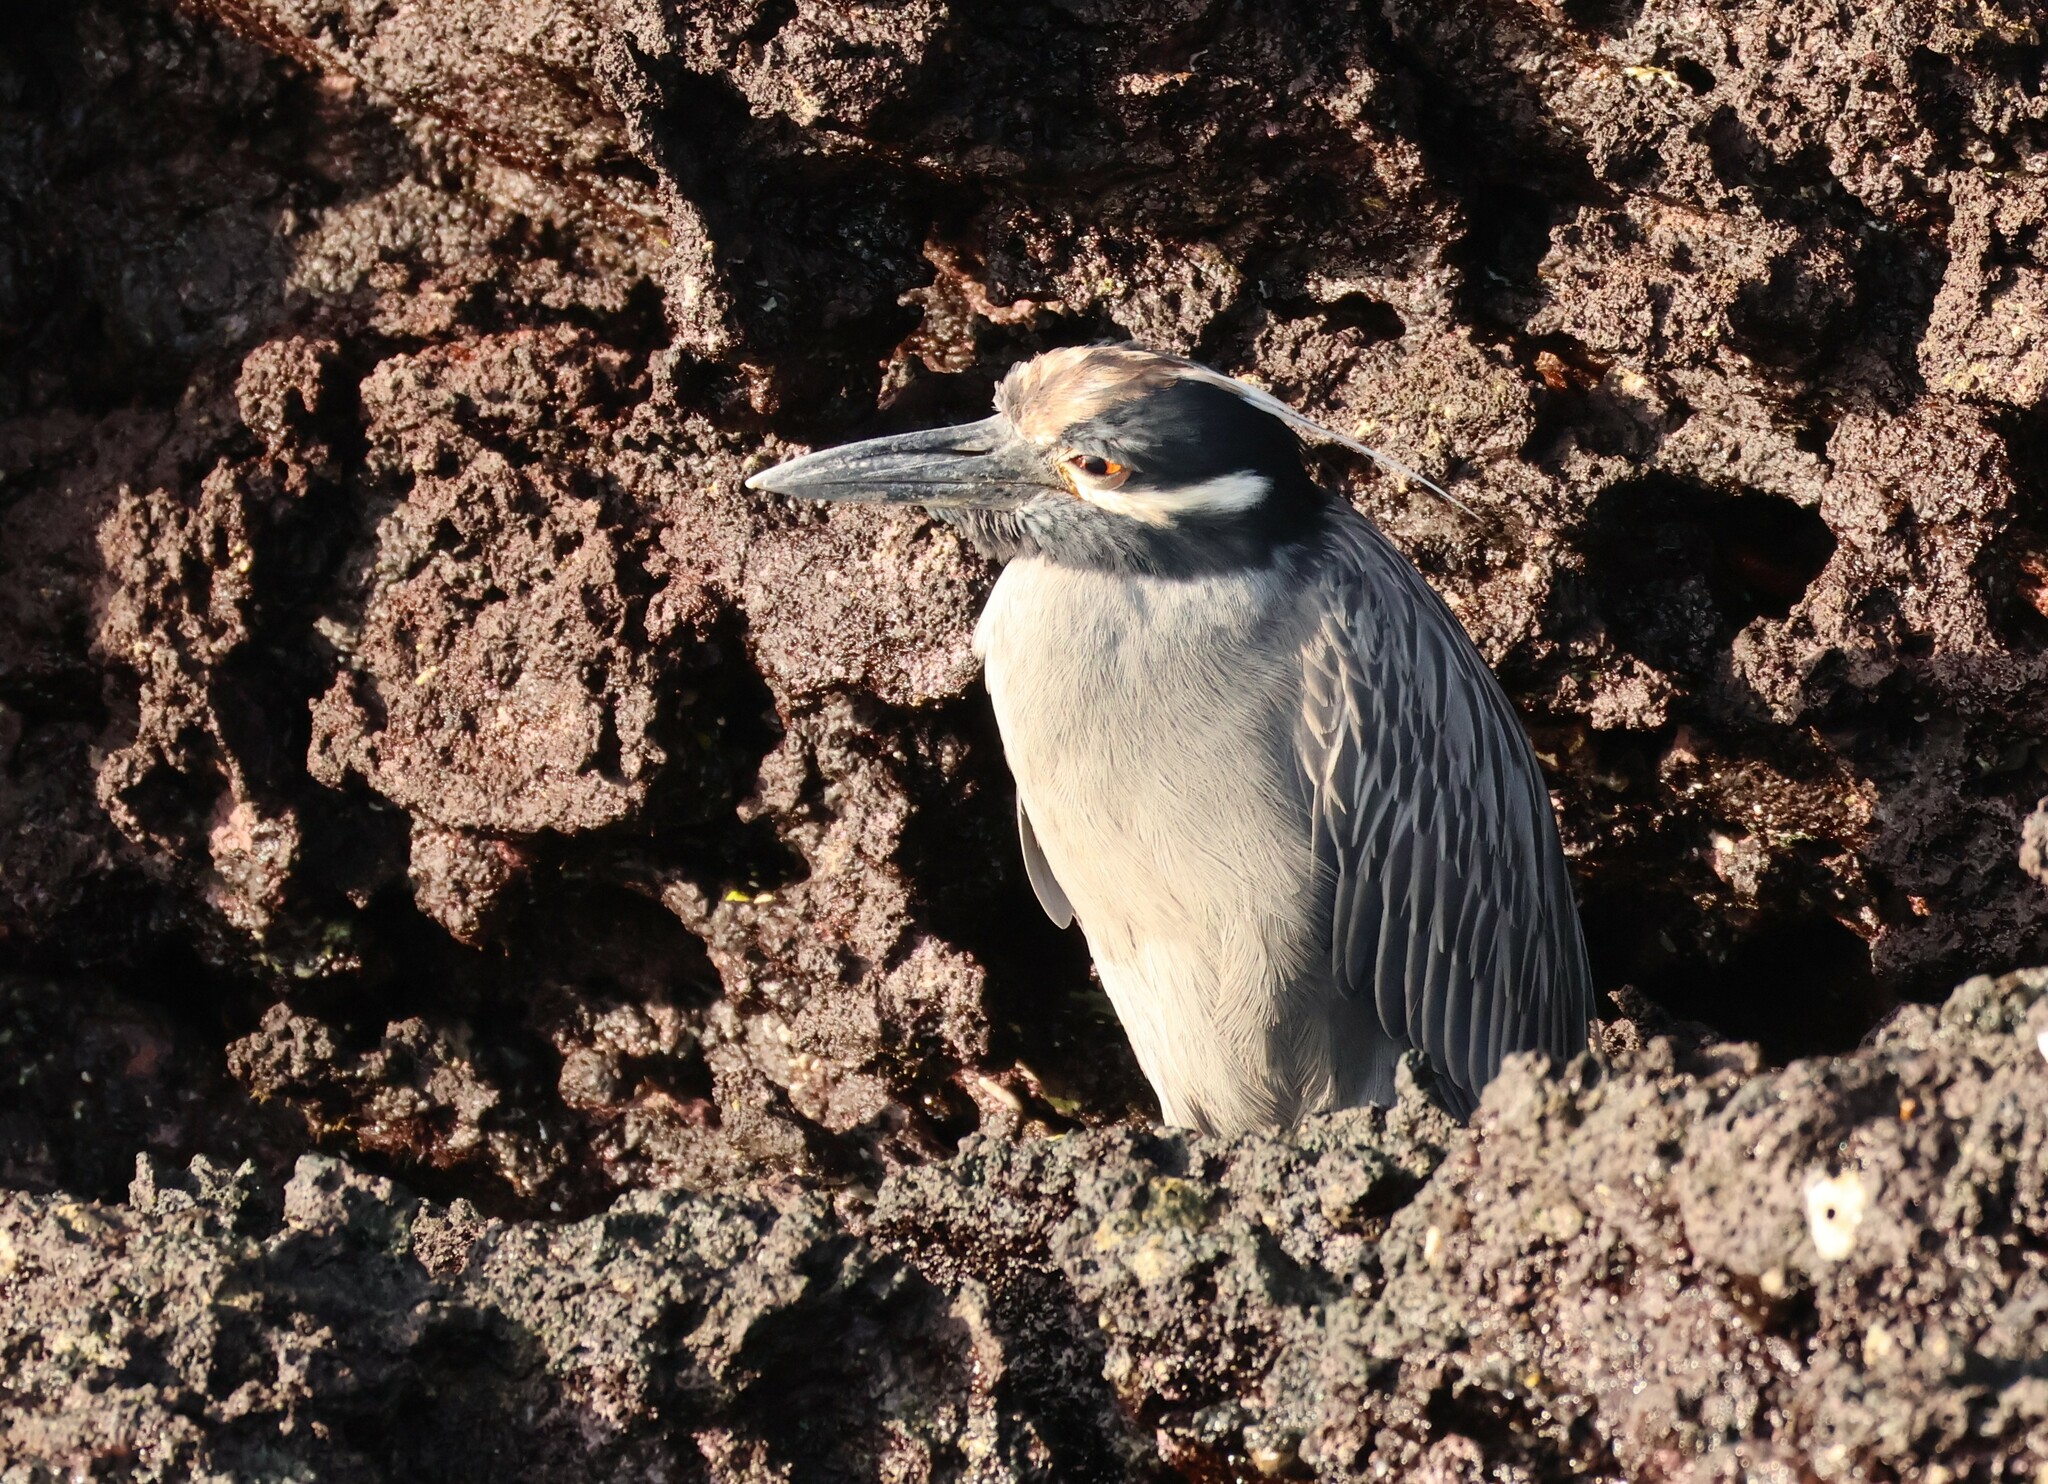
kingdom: Animalia
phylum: Chordata
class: Aves
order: Pelecaniformes
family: Ardeidae
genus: Nyctanassa
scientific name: Nyctanassa violacea
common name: Yellow-crowned night heron
